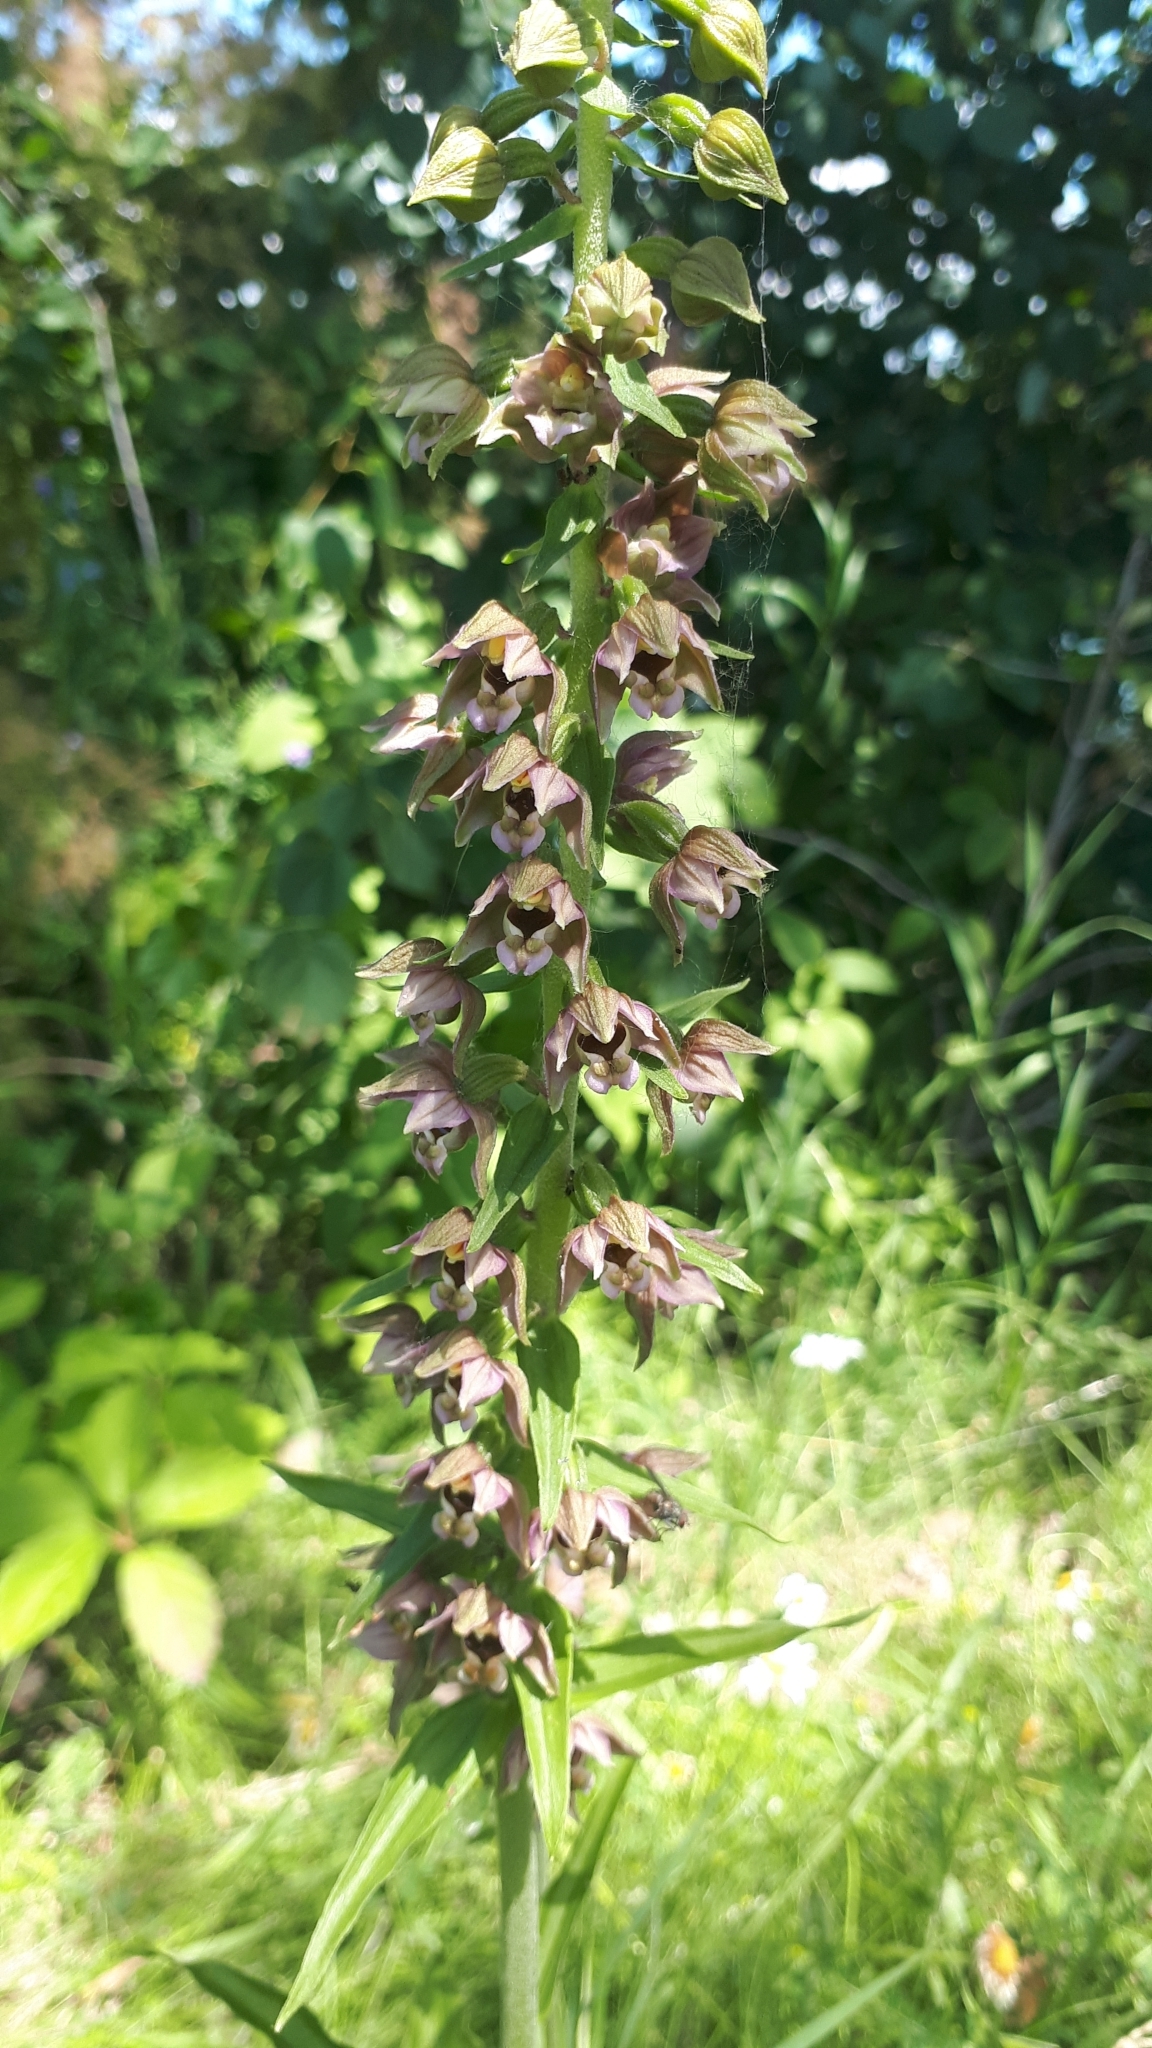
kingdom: Plantae
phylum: Tracheophyta
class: Liliopsida
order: Asparagales
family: Orchidaceae
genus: Epipactis
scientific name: Epipactis helleborine
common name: Broad-leaved helleborine
